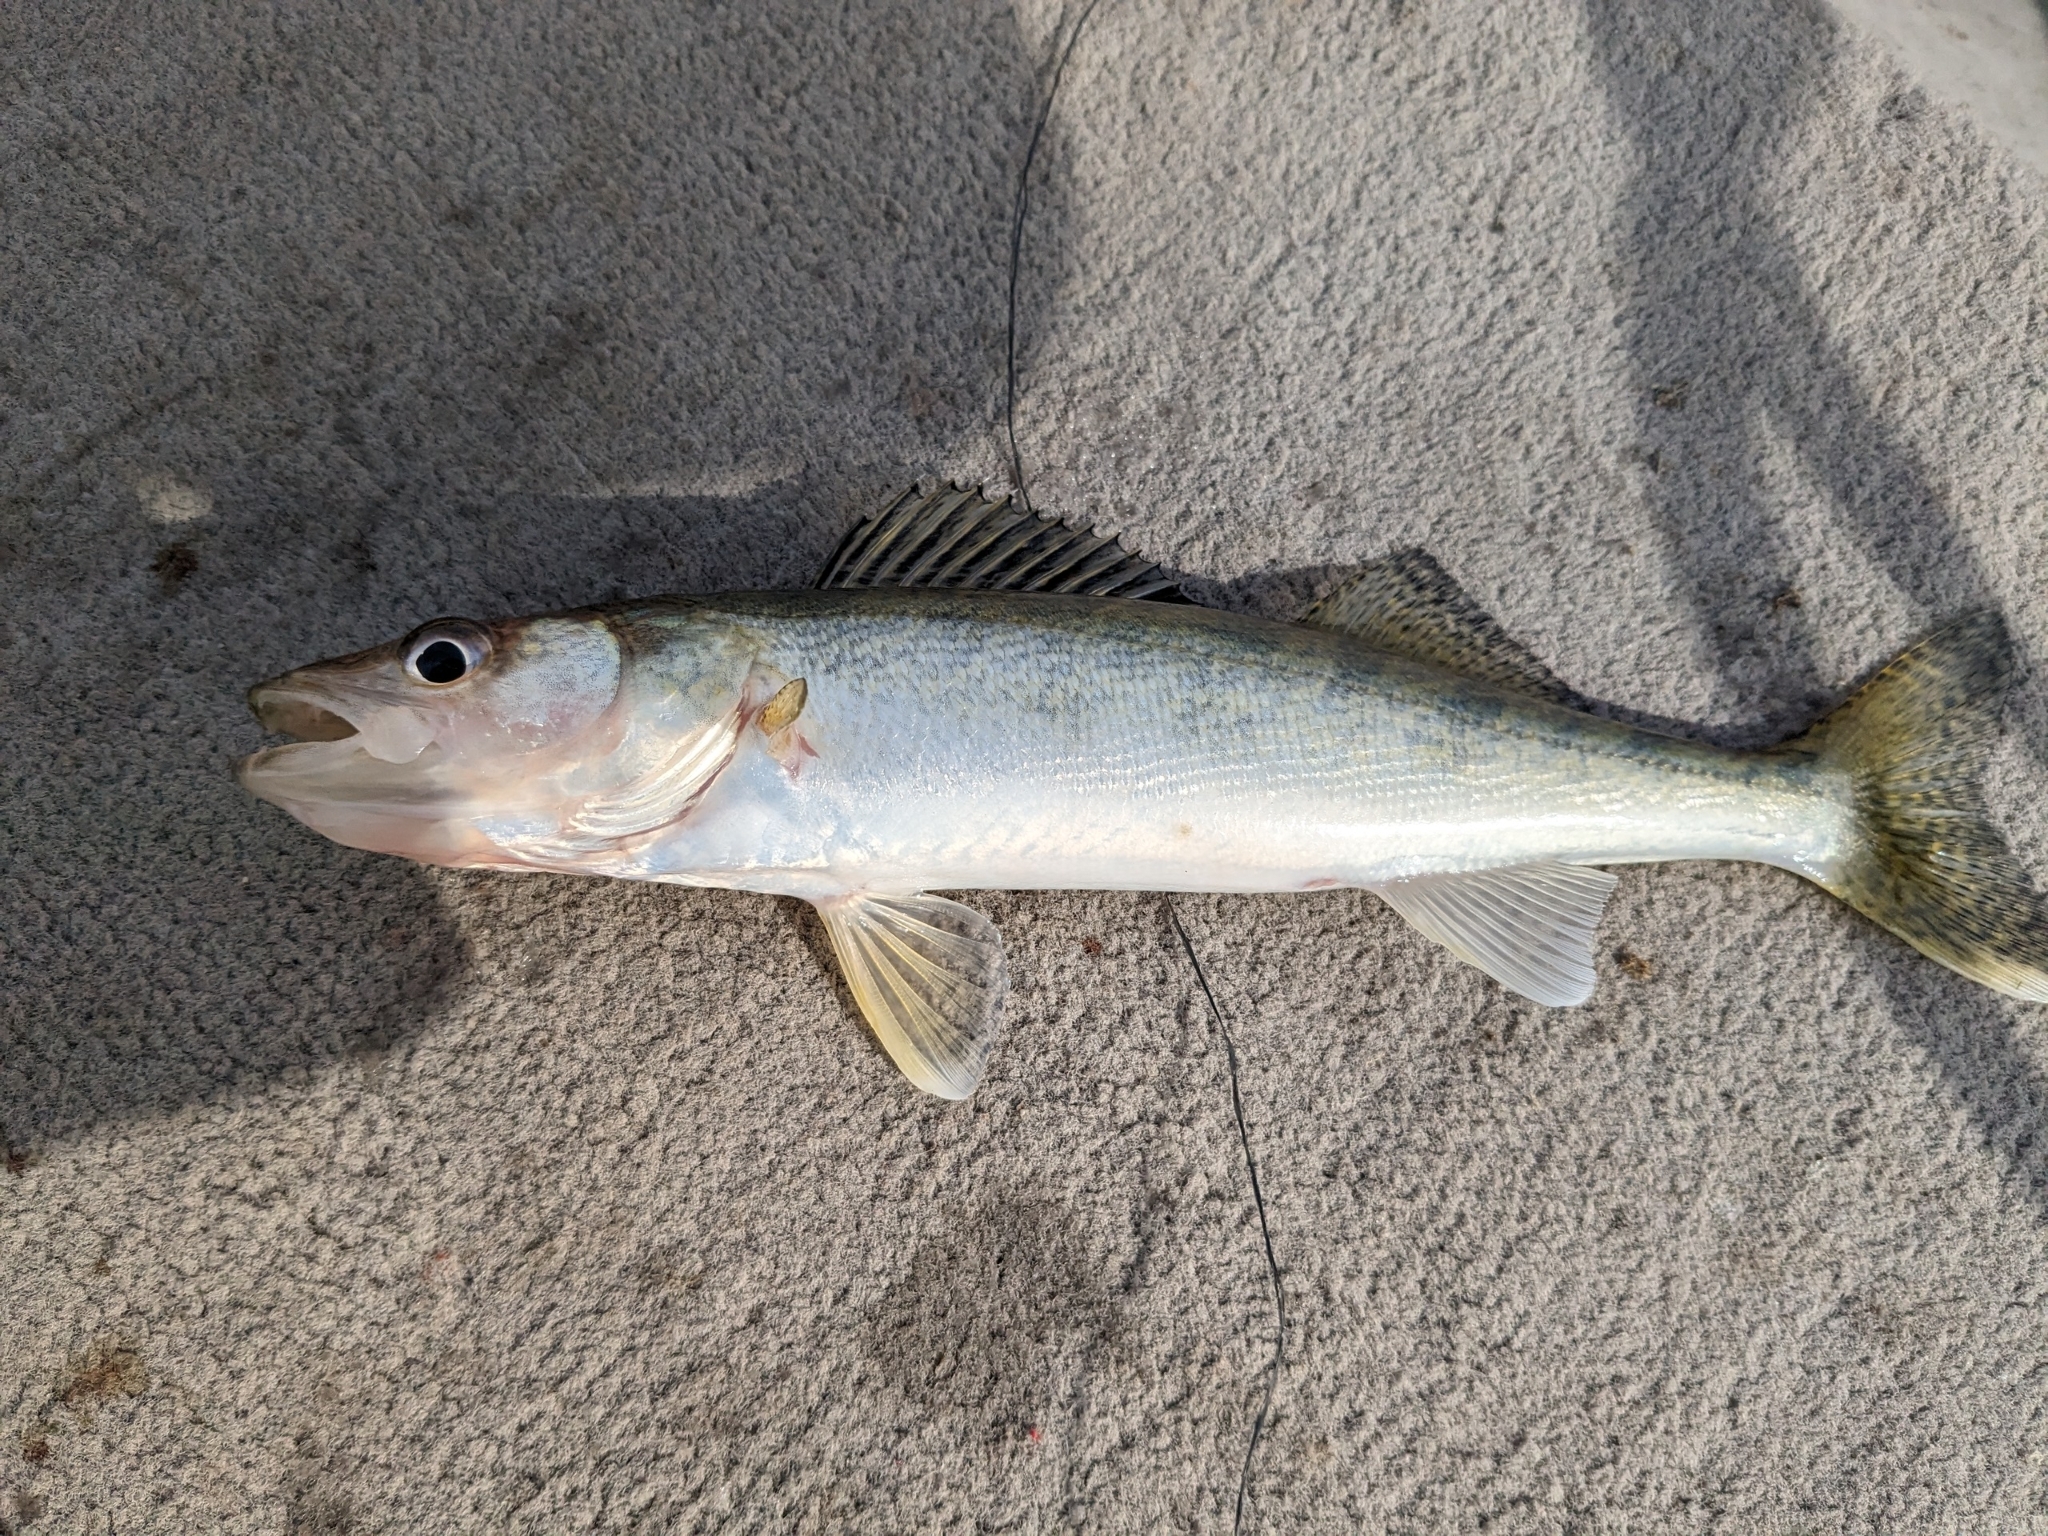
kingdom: Animalia
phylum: Chordata
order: Perciformes
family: Percidae
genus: Sander
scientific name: Sander vitreus
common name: Walleye
